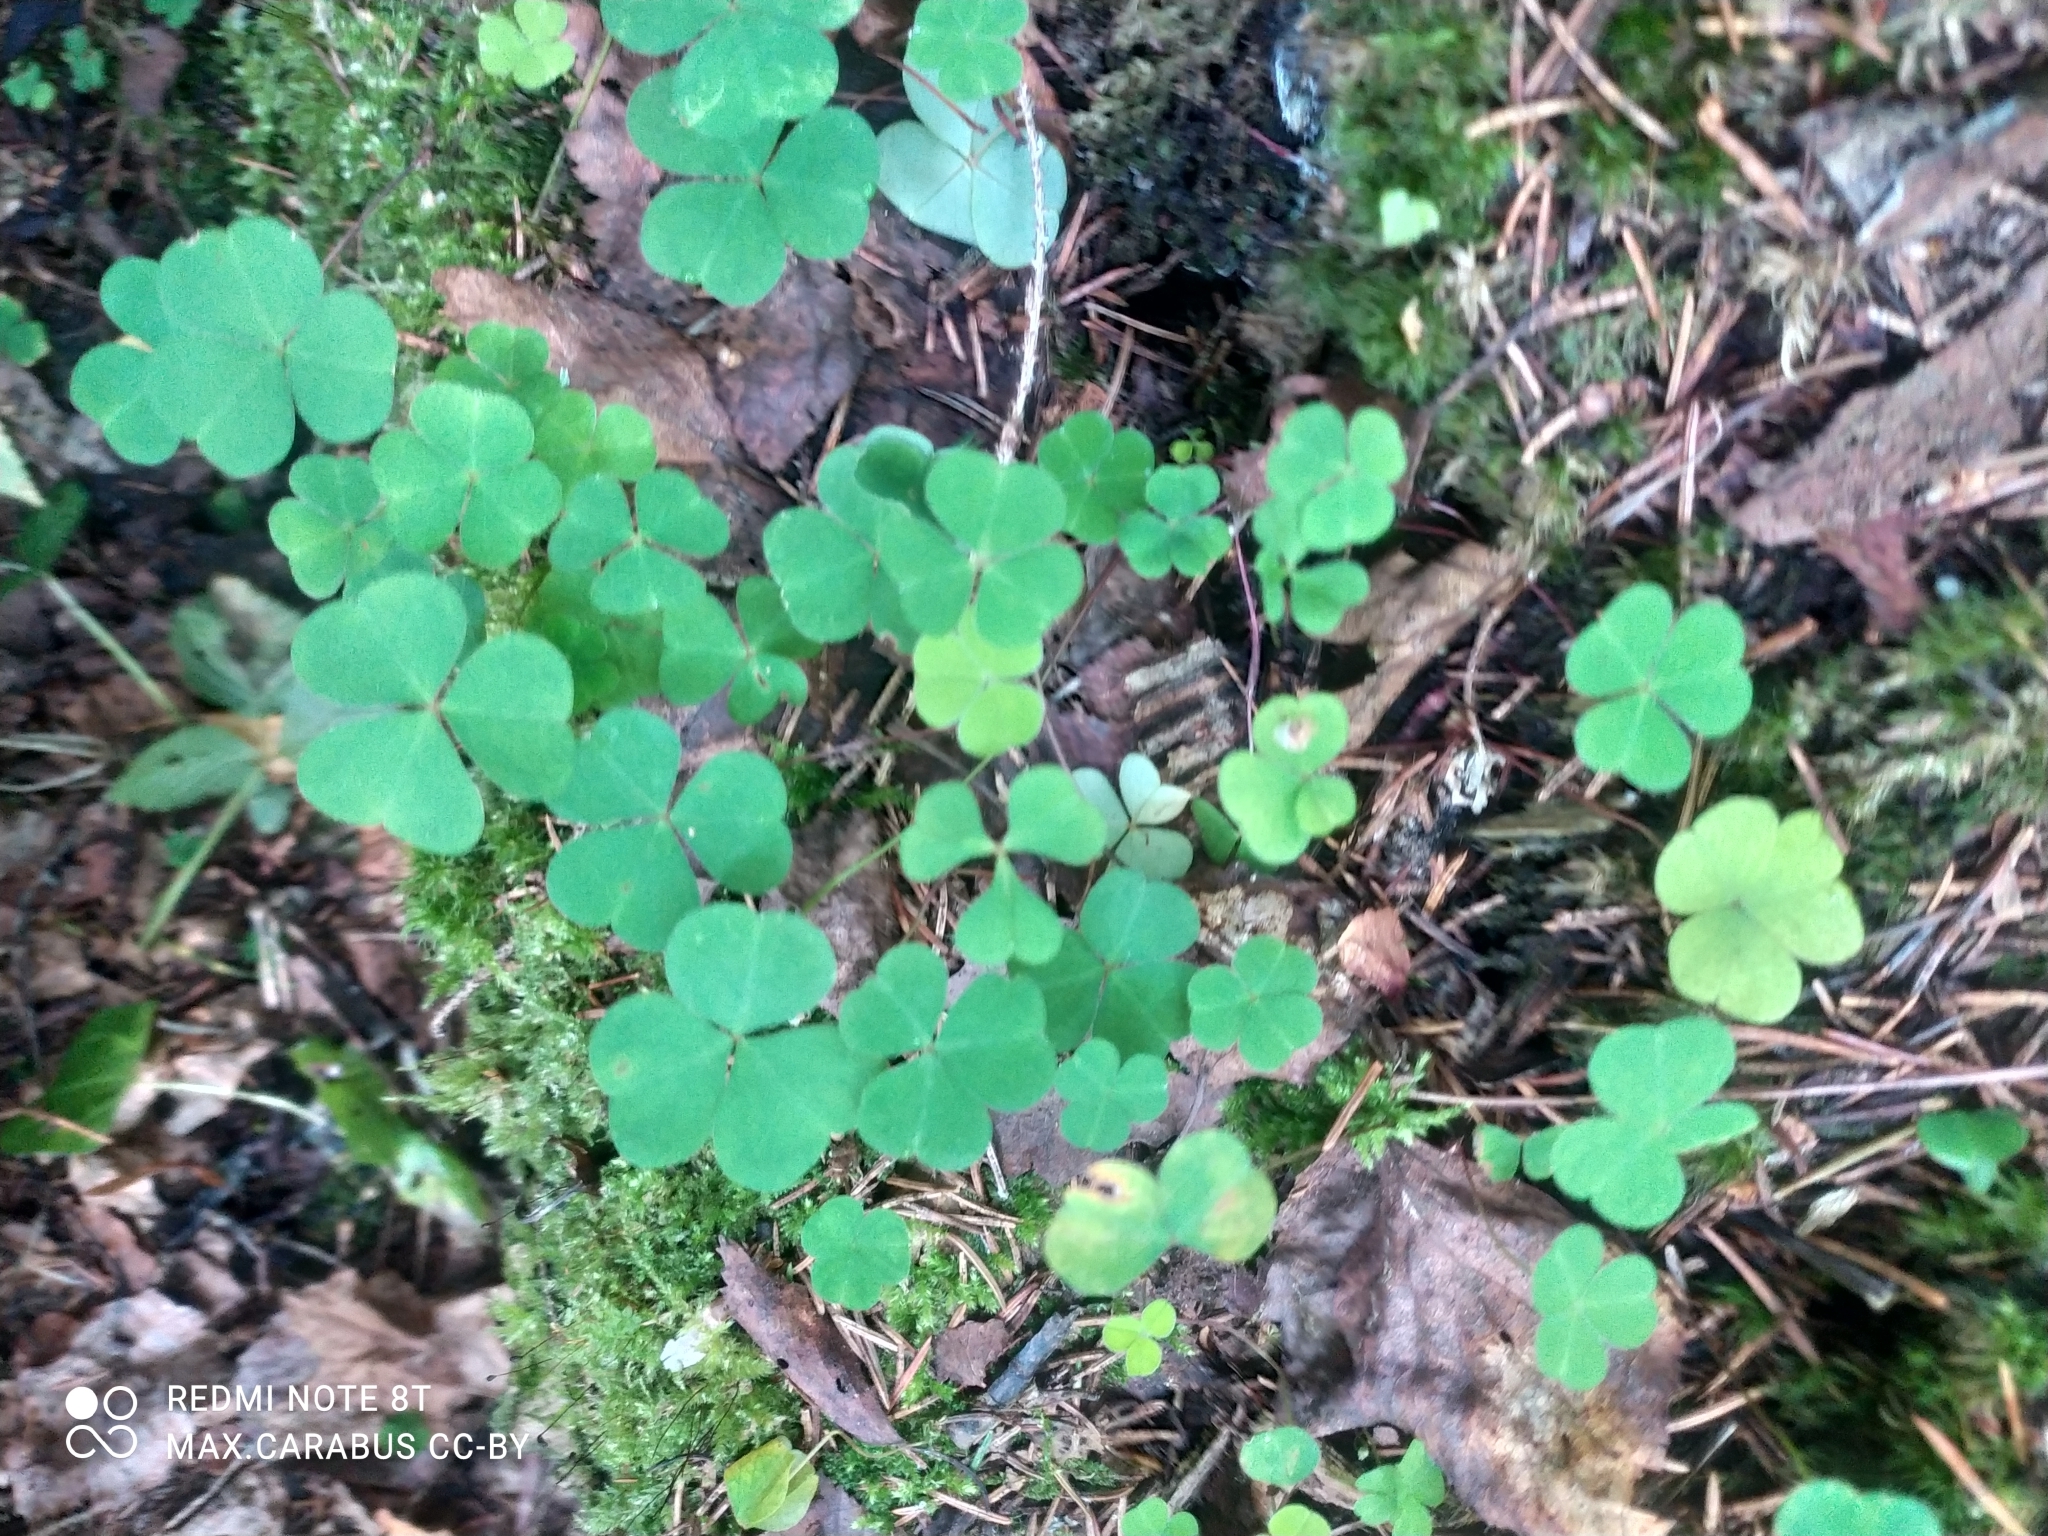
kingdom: Plantae
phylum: Tracheophyta
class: Magnoliopsida
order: Oxalidales
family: Oxalidaceae
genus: Oxalis
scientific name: Oxalis acetosella
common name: Wood-sorrel
